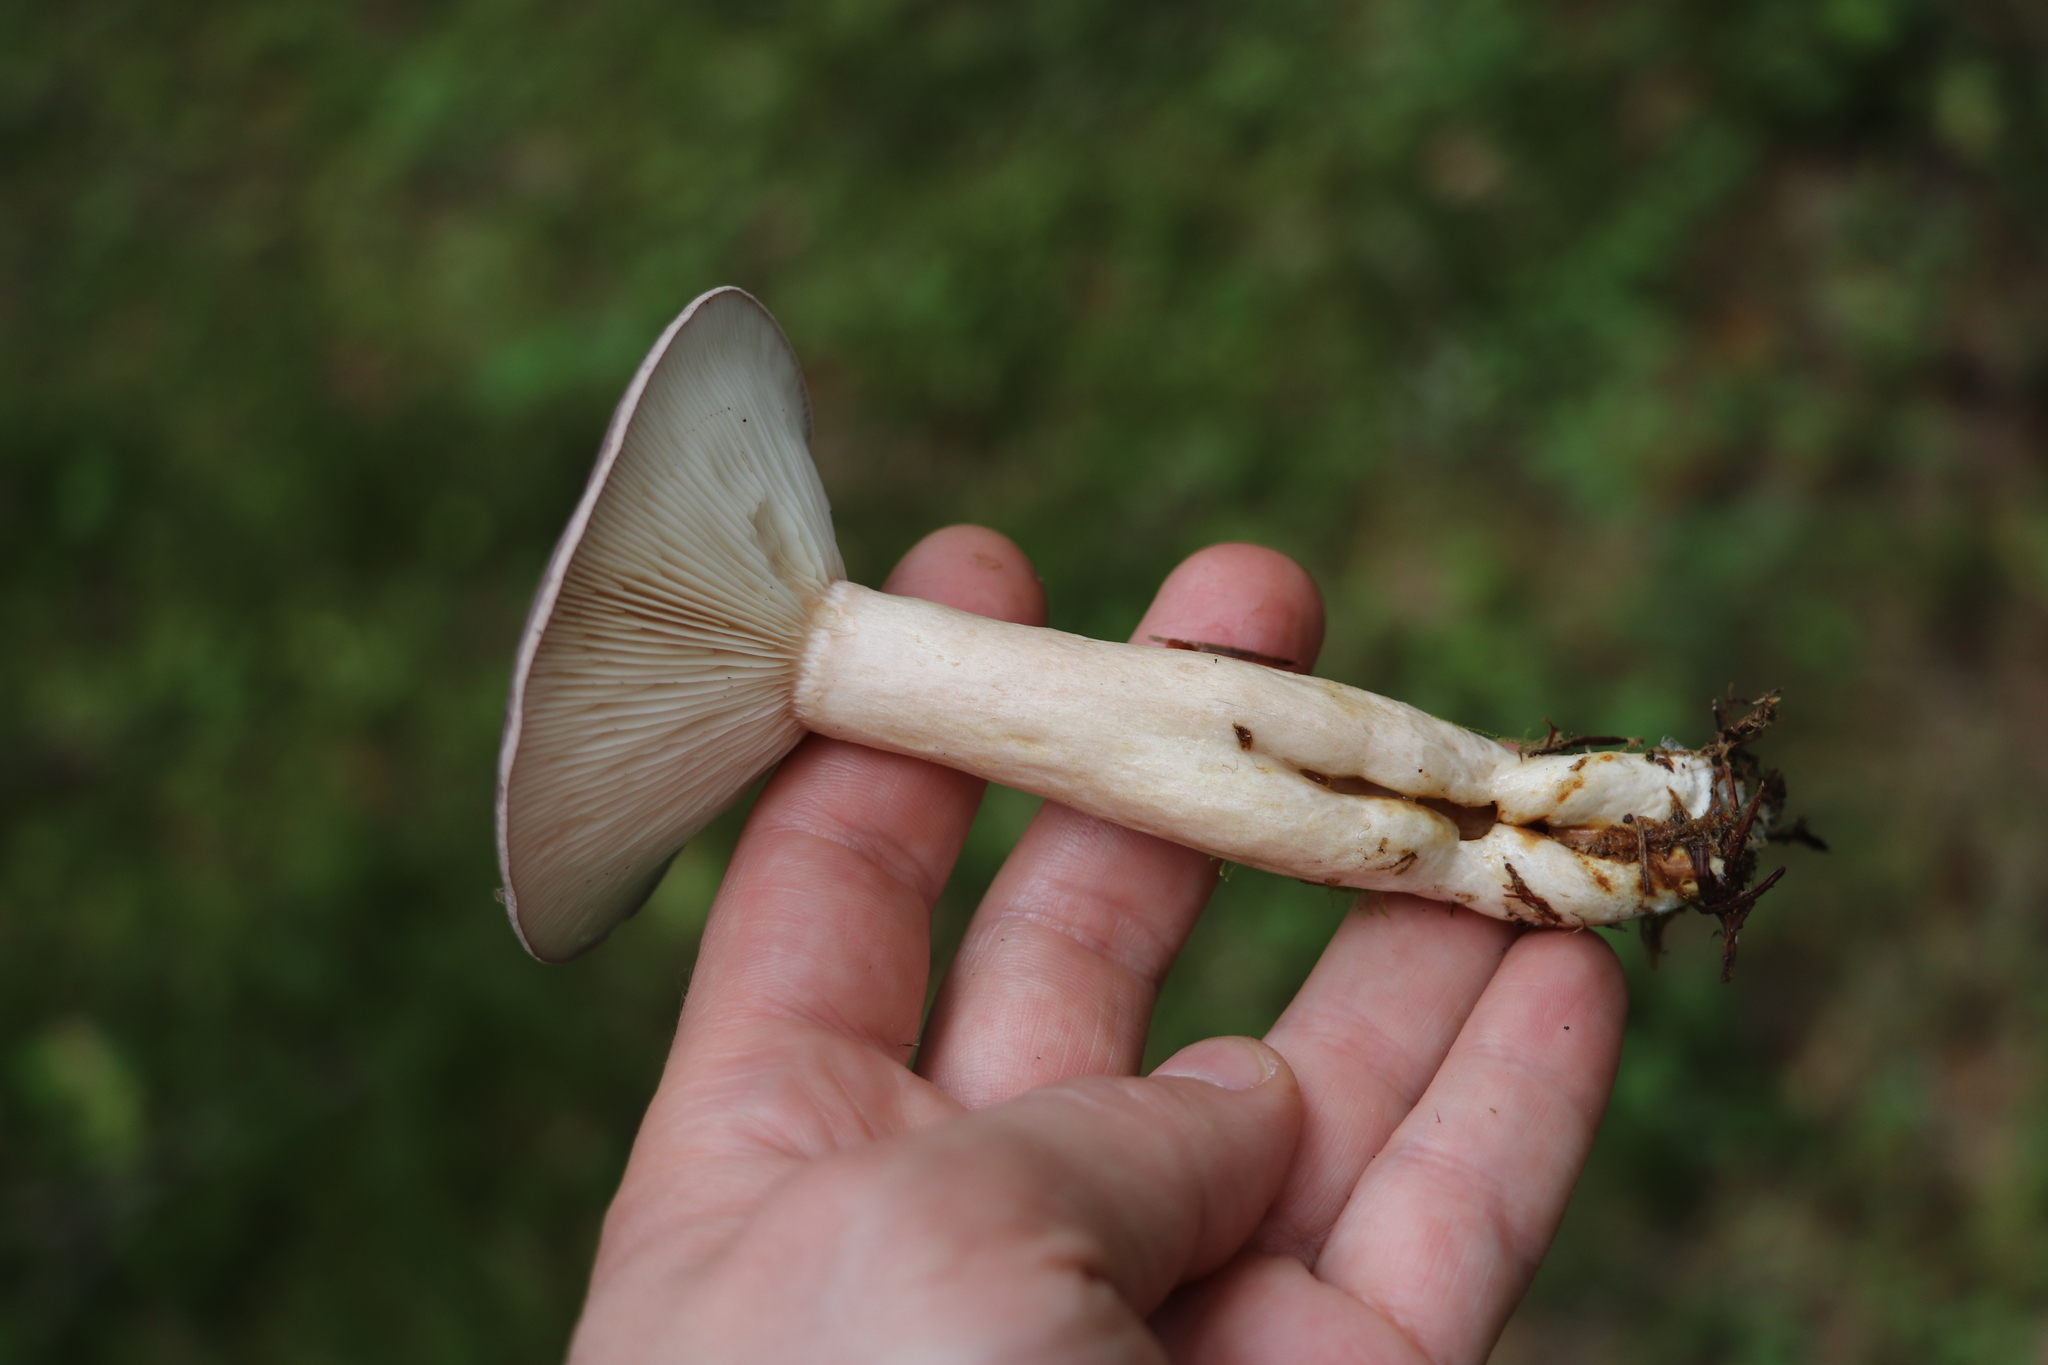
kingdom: Fungi
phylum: Basidiomycota
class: Agaricomycetes
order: Russulales
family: Russulaceae
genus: Lactarius
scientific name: Lactarius trivialis
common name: Tacked milkcap
